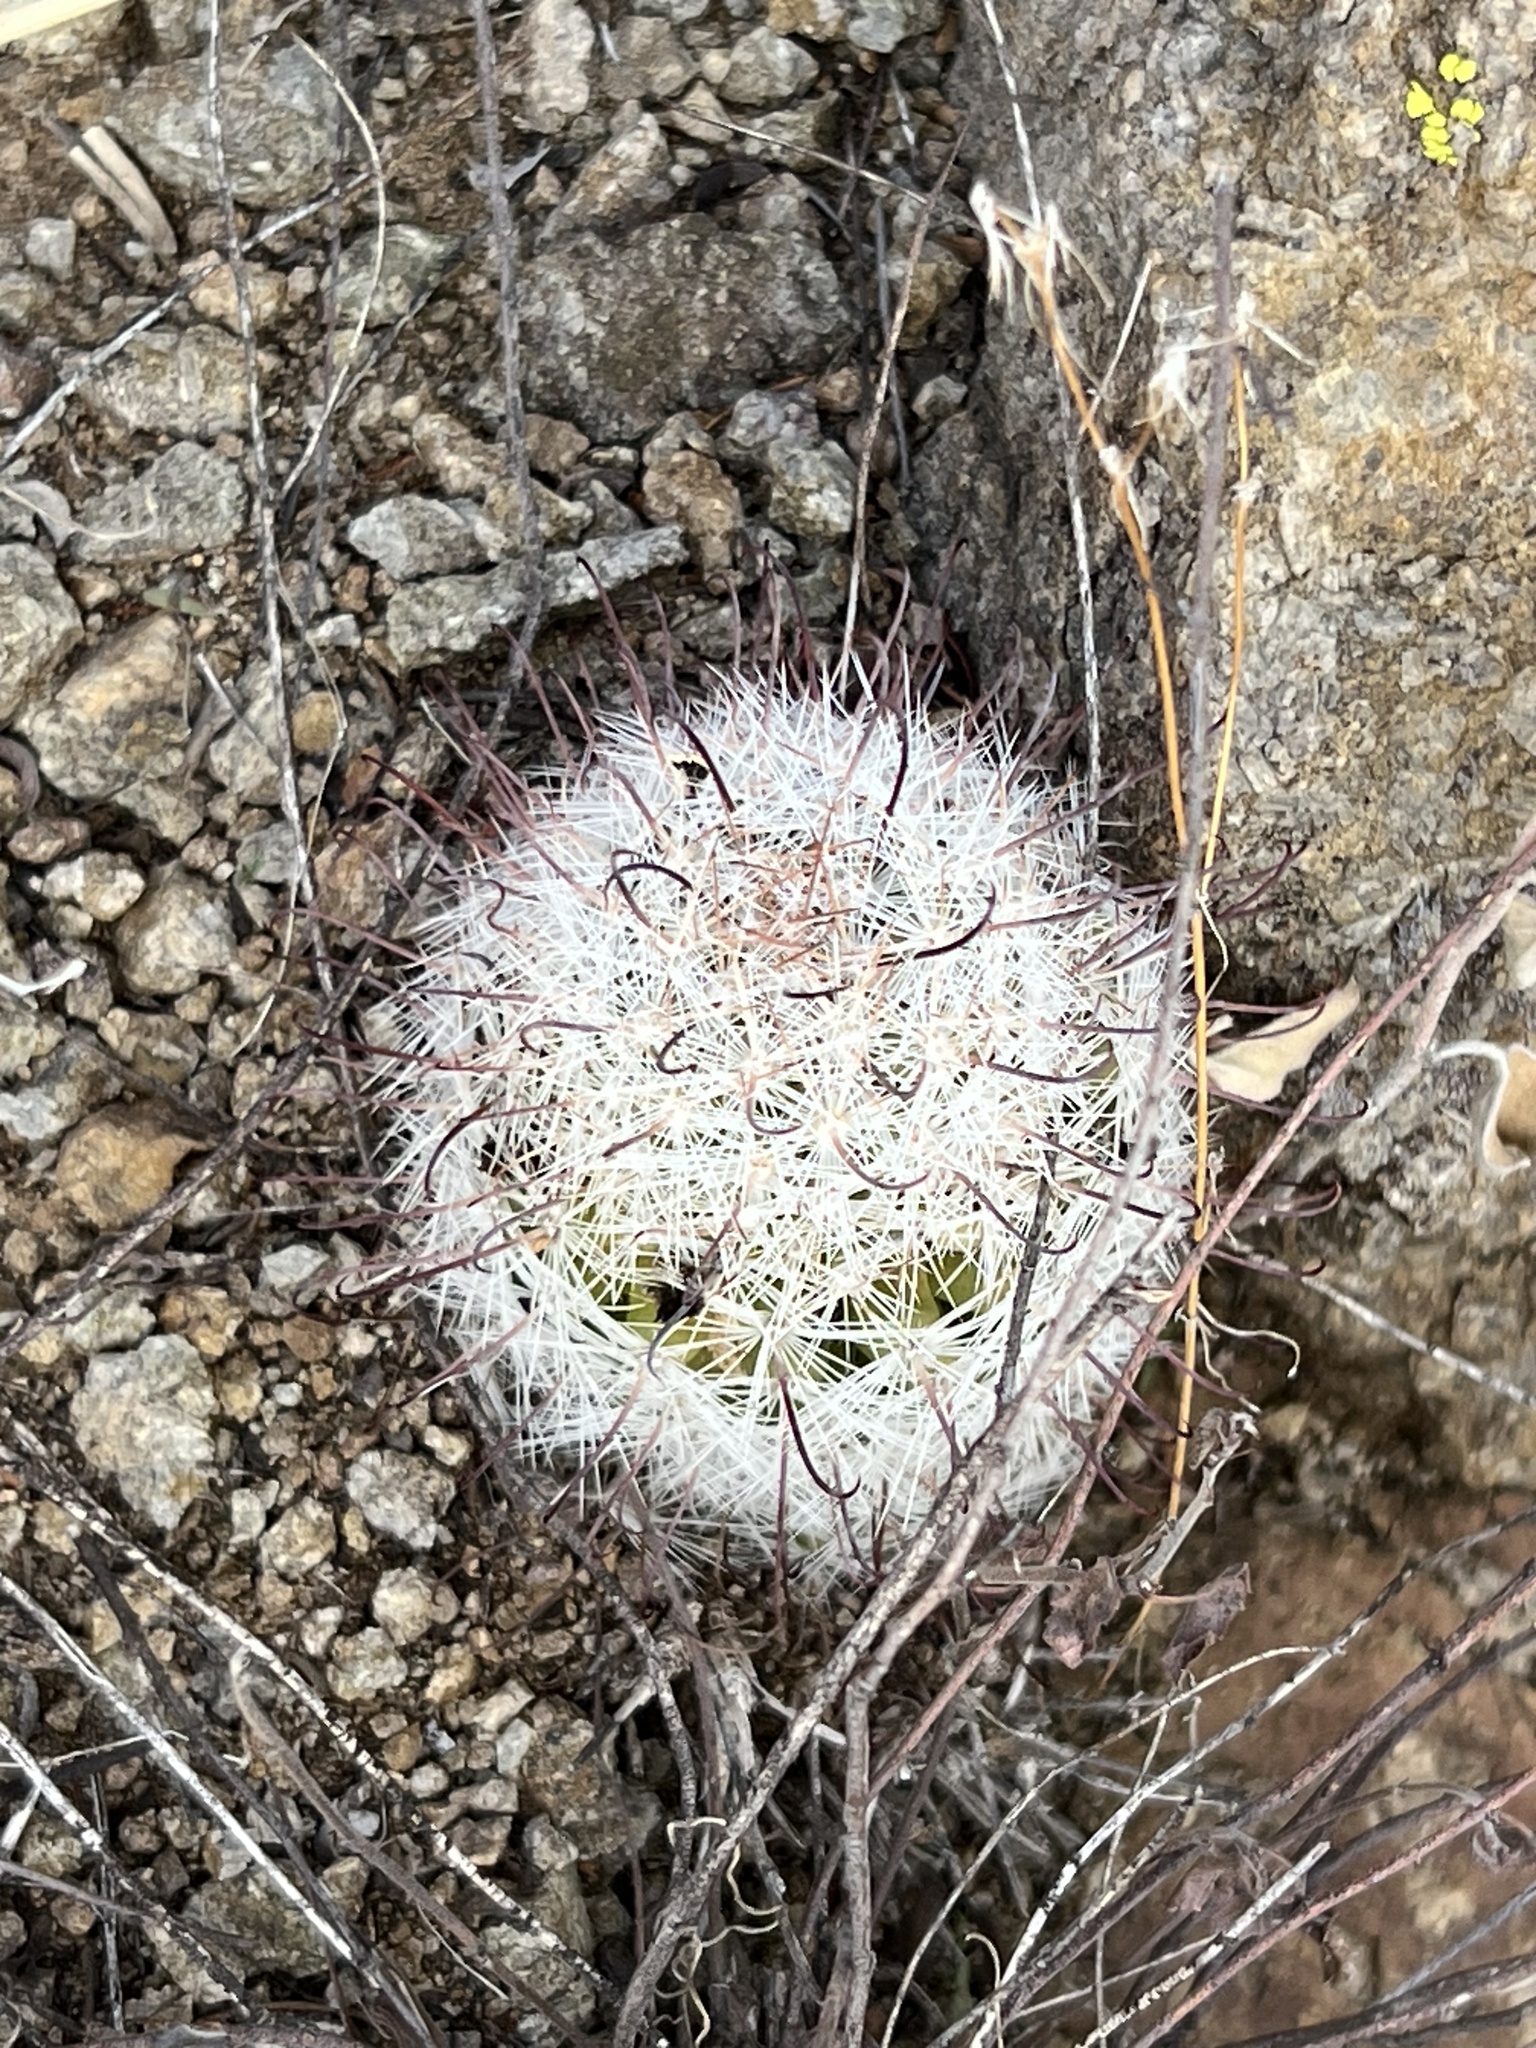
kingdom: Plantae
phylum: Tracheophyta
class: Magnoliopsida
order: Caryophyllales
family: Cactaceae
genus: Cochemiea
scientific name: Cochemiea grahamii
